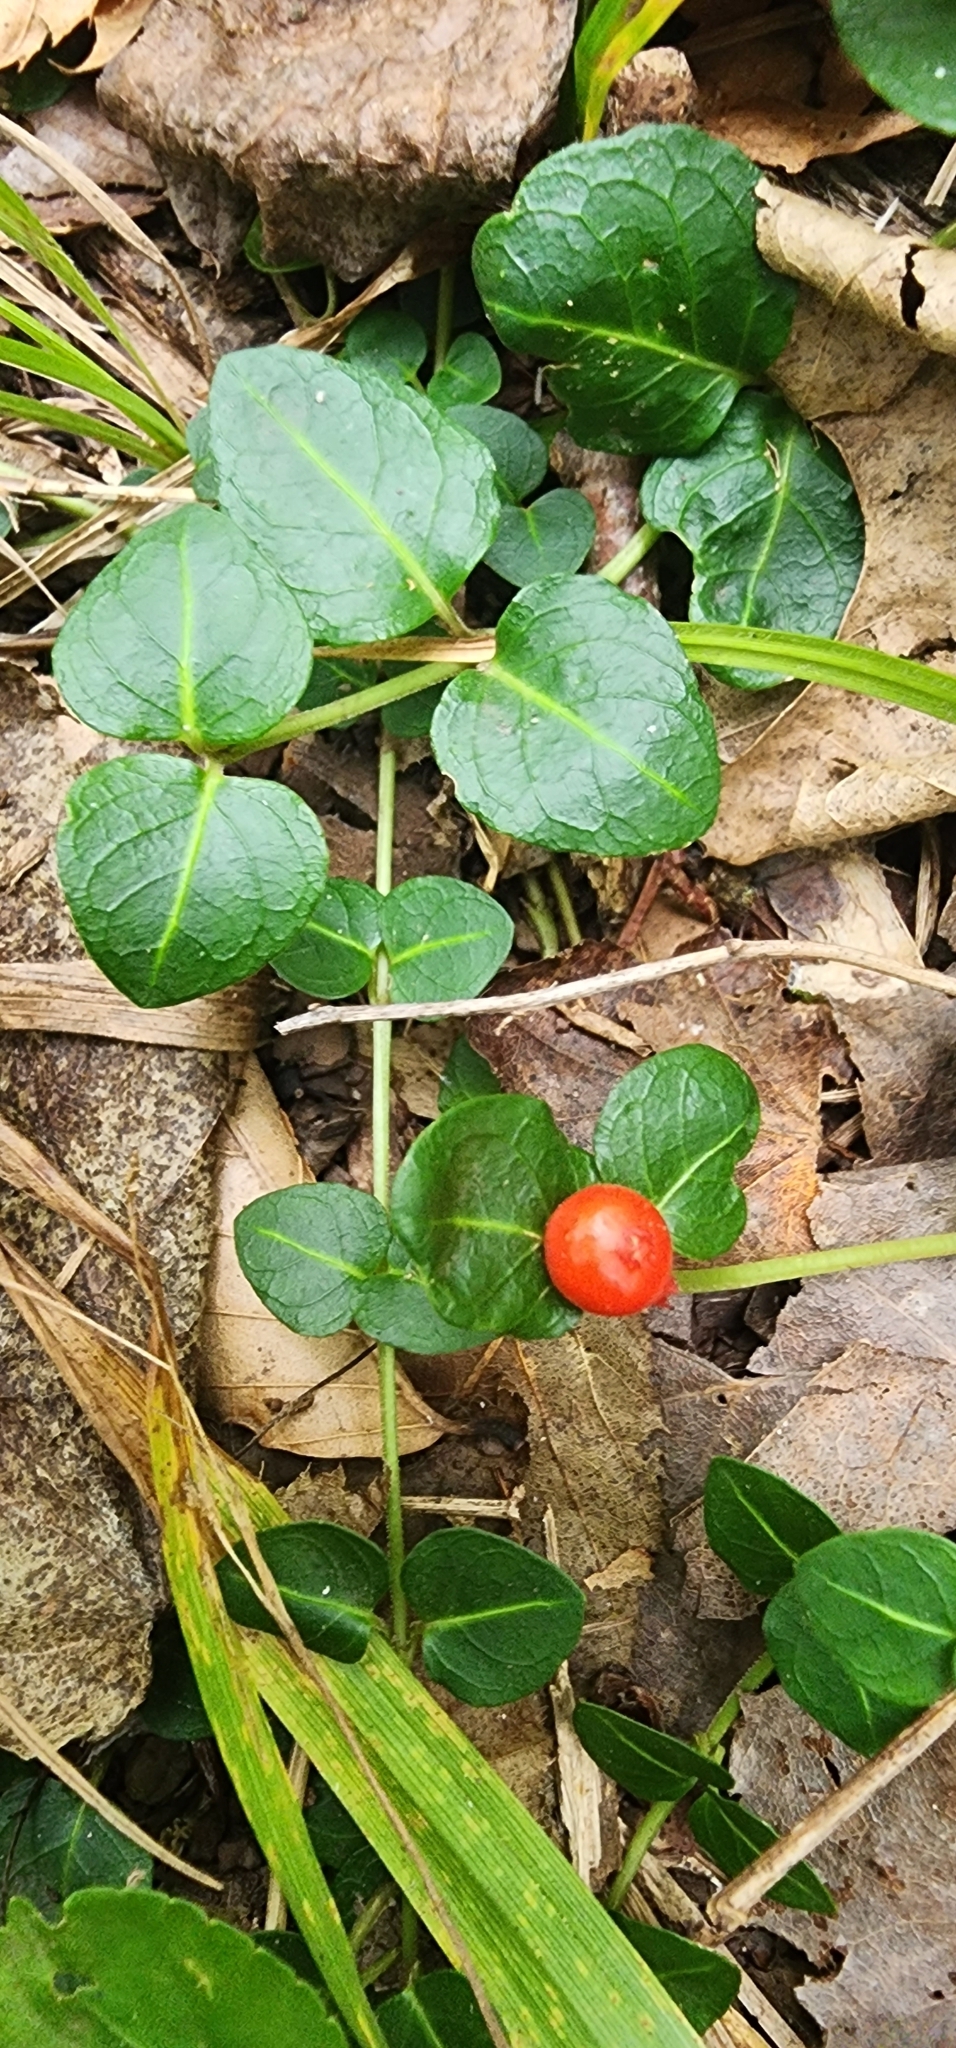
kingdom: Plantae
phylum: Tracheophyta
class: Magnoliopsida
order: Gentianales
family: Rubiaceae
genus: Mitchella
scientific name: Mitchella repens
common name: Partridge-berry
